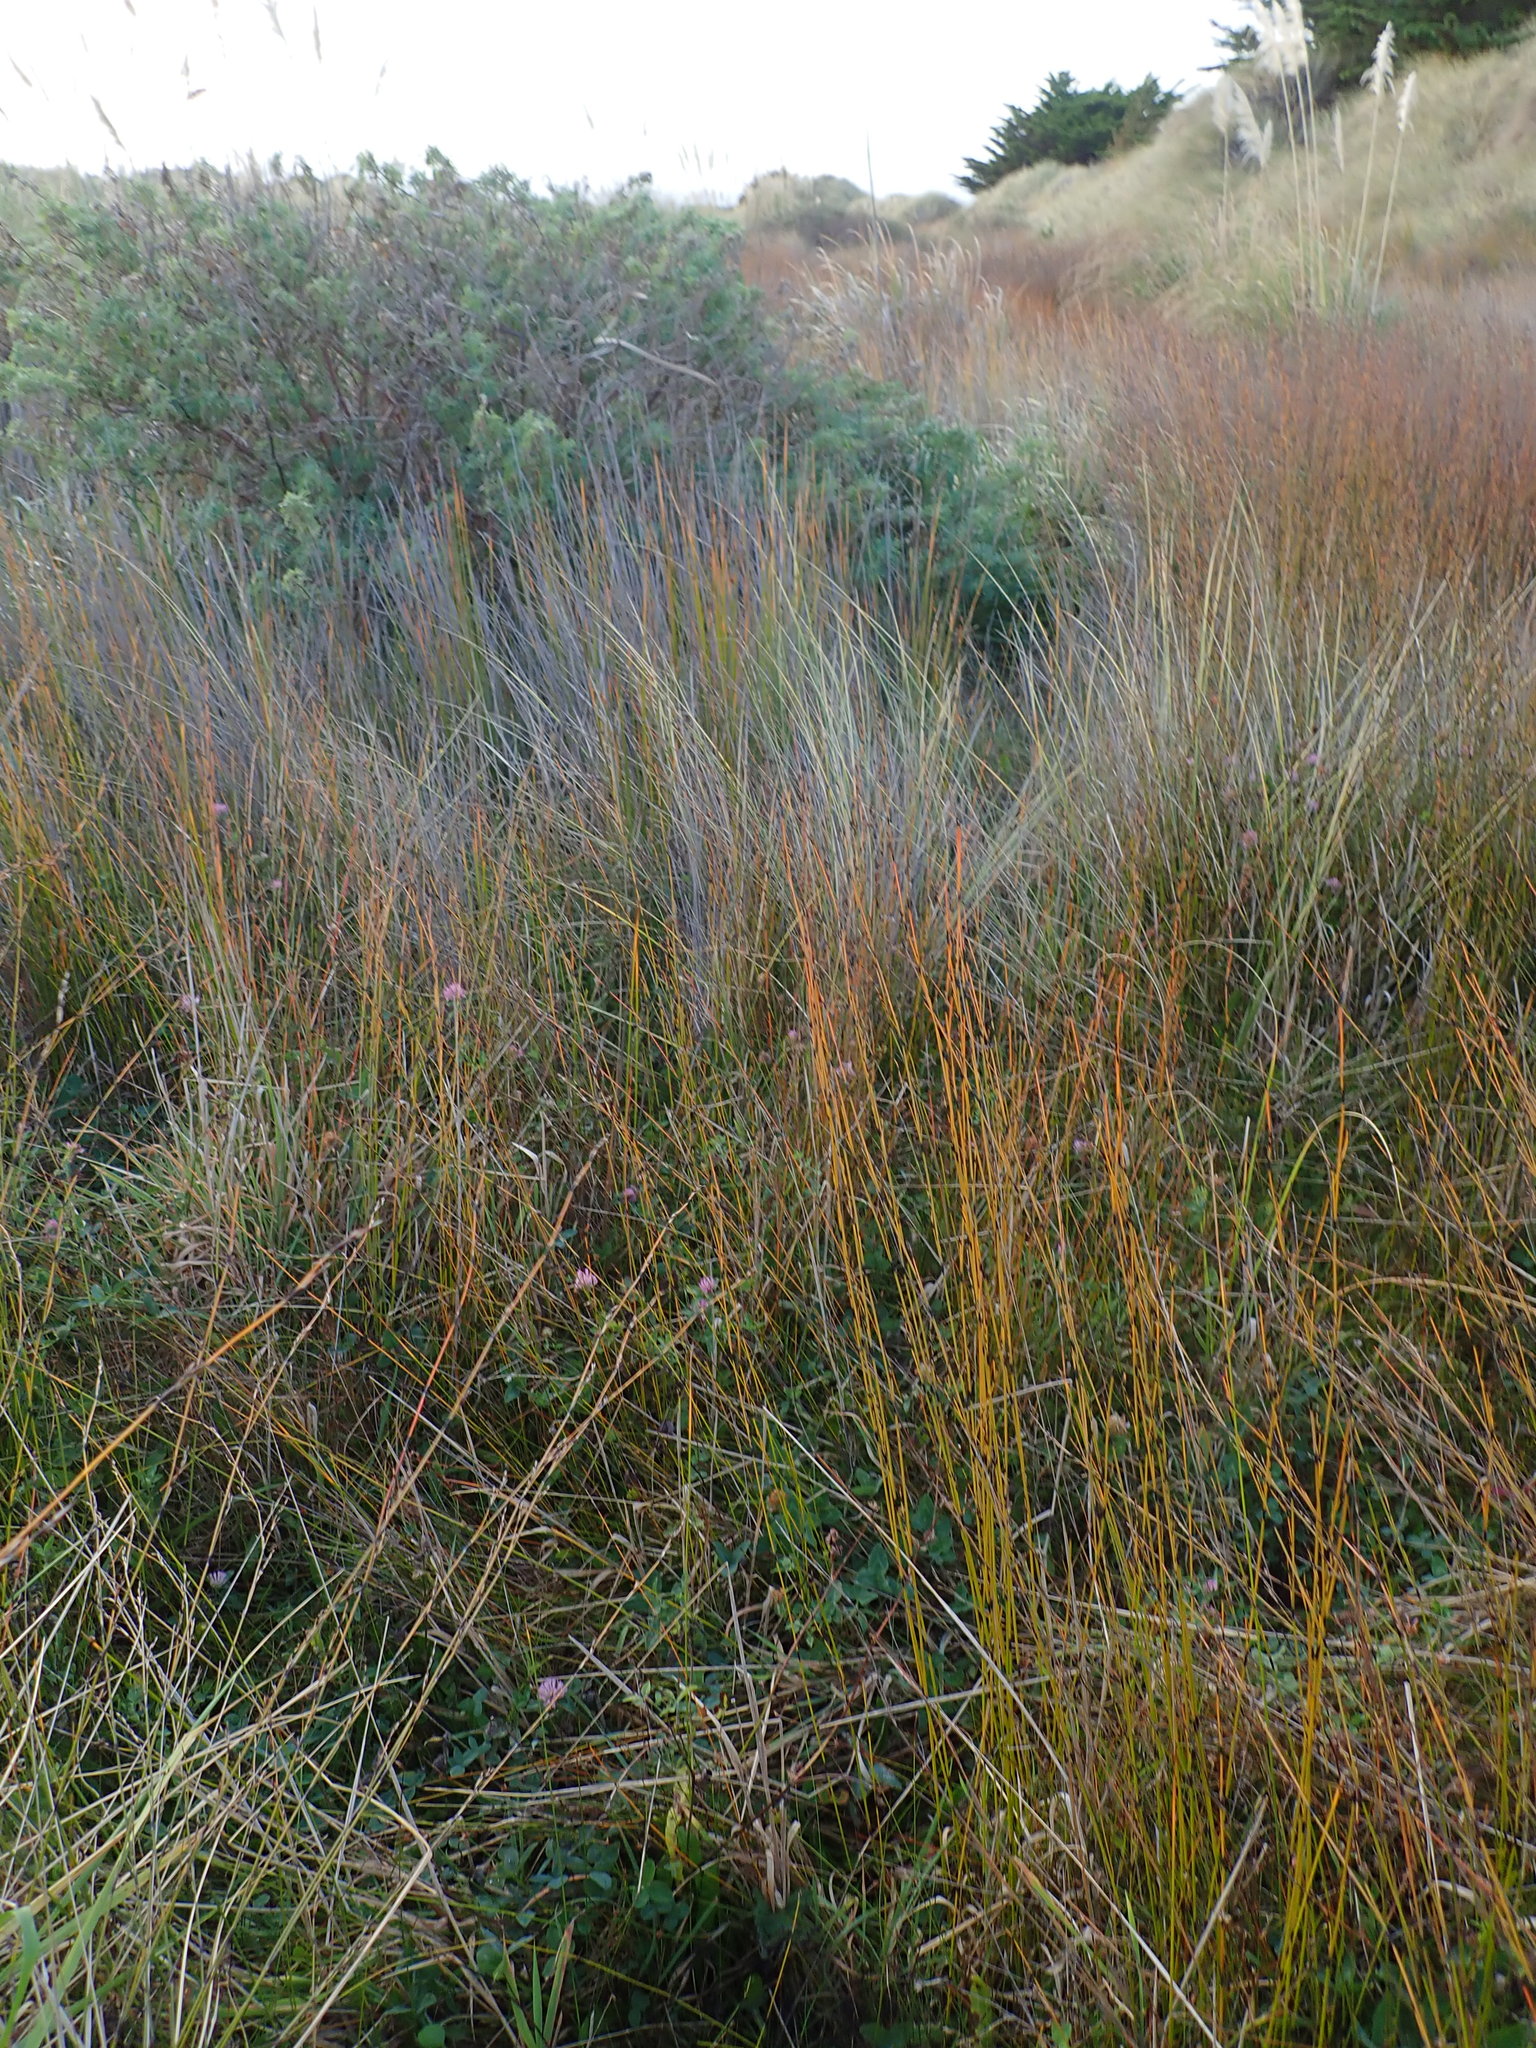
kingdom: Plantae
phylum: Tracheophyta
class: Magnoliopsida
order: Fabales
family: Fabaceae
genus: Trifolium
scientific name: Trifolium pratense
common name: Red clover
